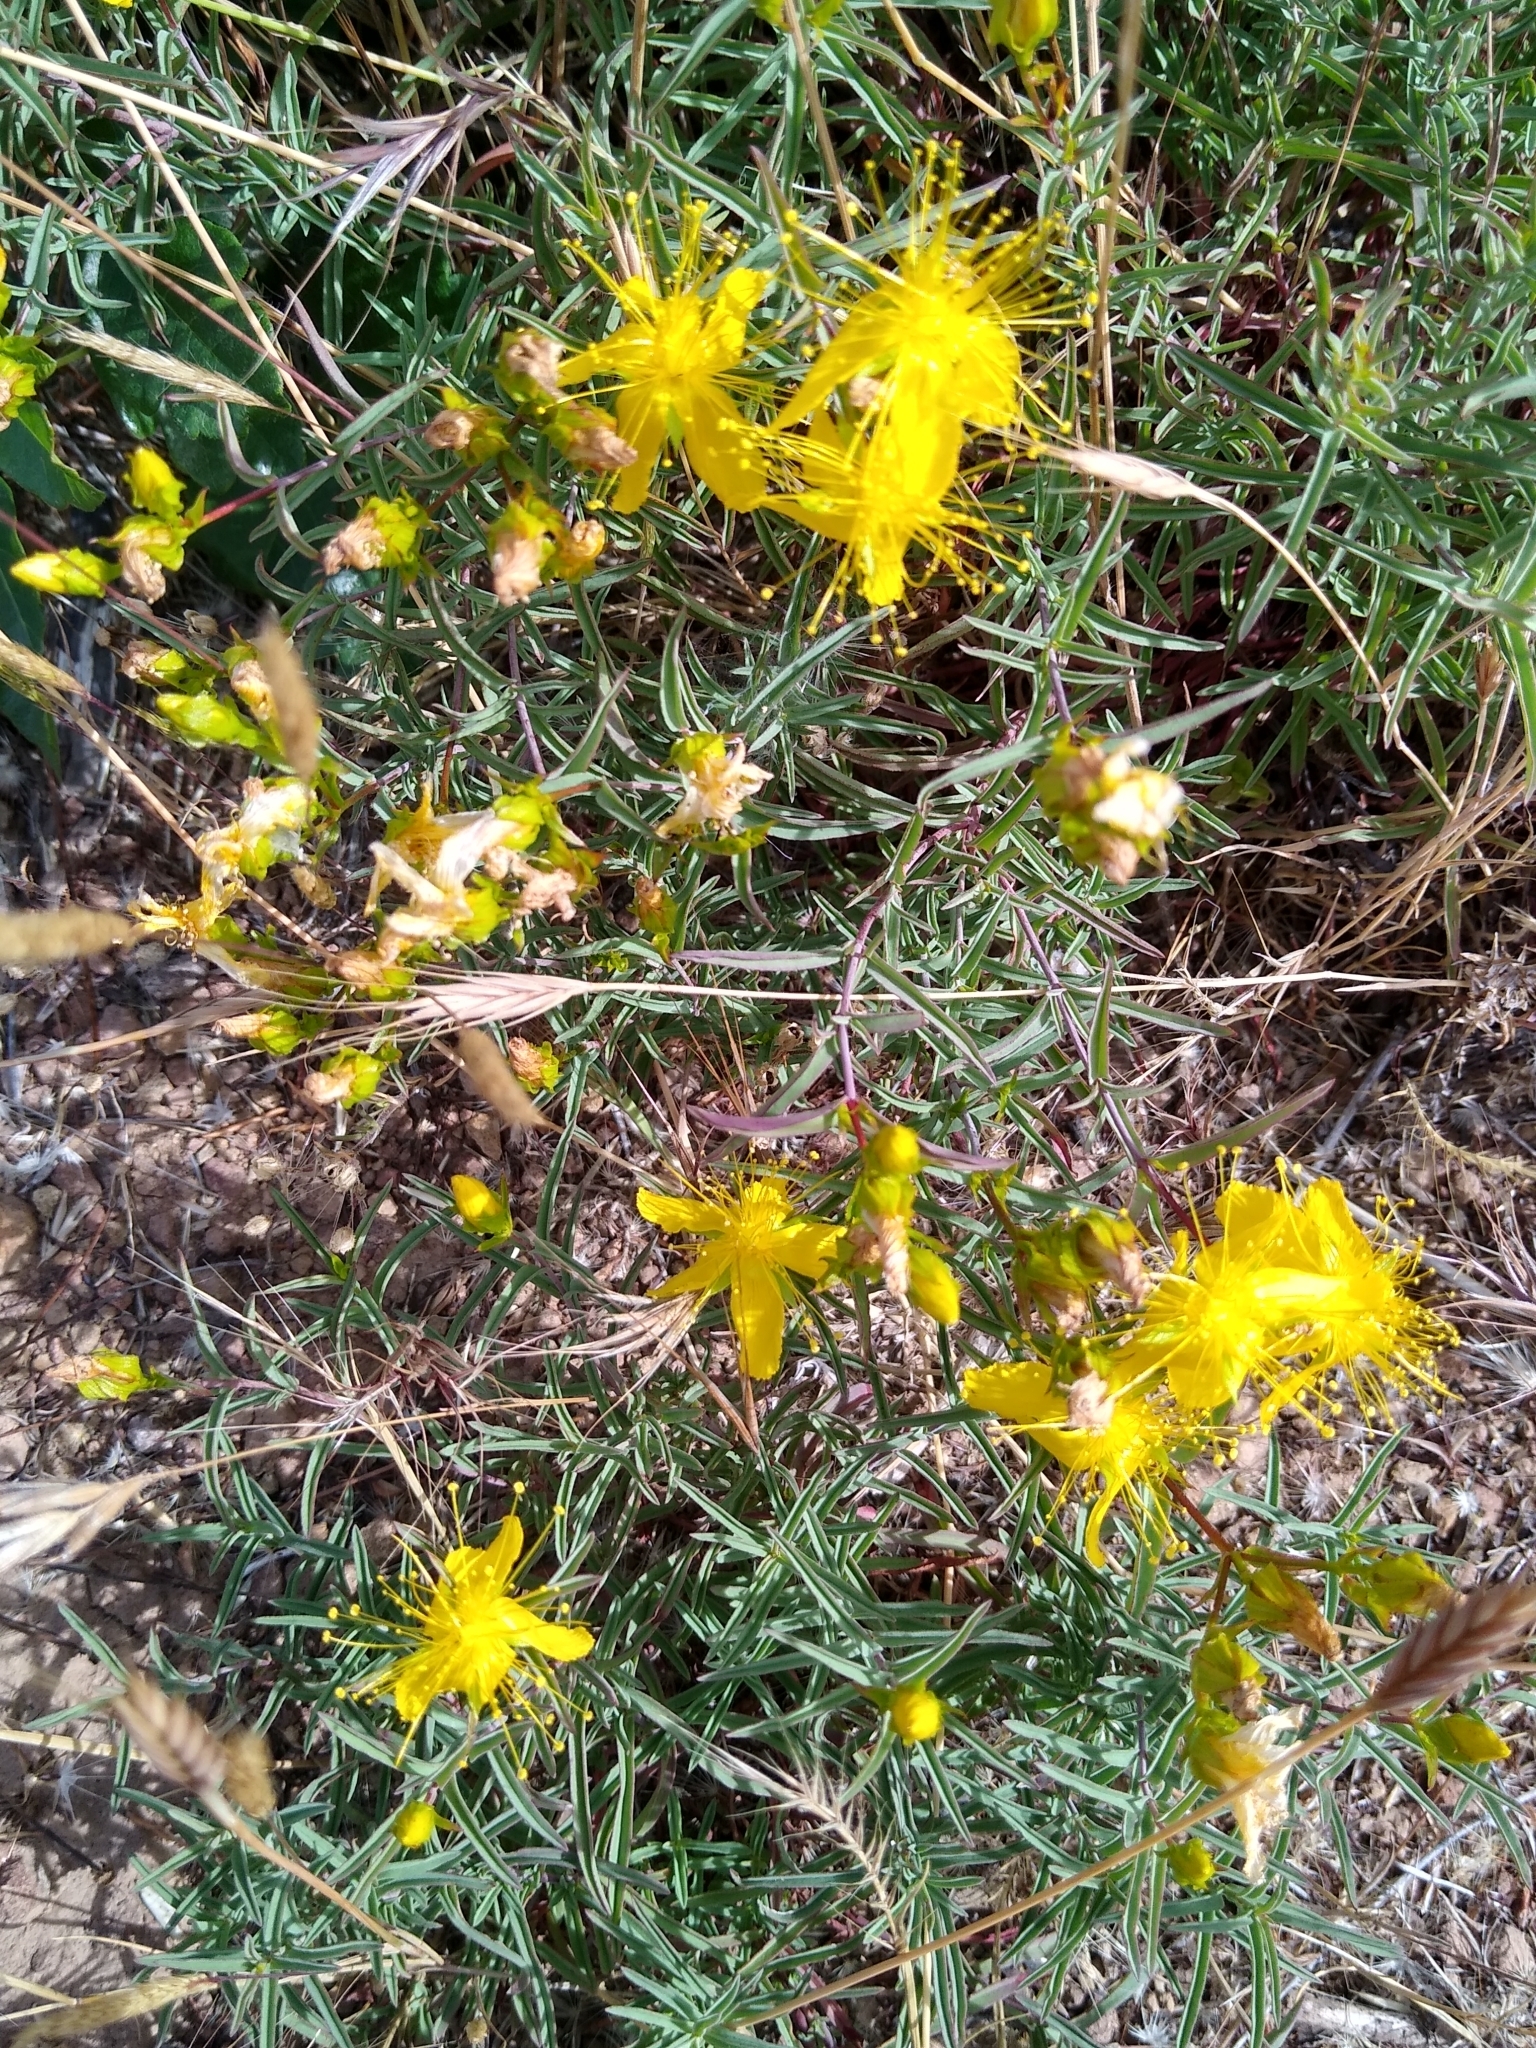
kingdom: Plantae
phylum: Tracheophyta
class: Magnoliopsida
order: Malpighiales
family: Hypericaceae
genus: Hypericum
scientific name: Hypericum concinnum
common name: Gold-wire
